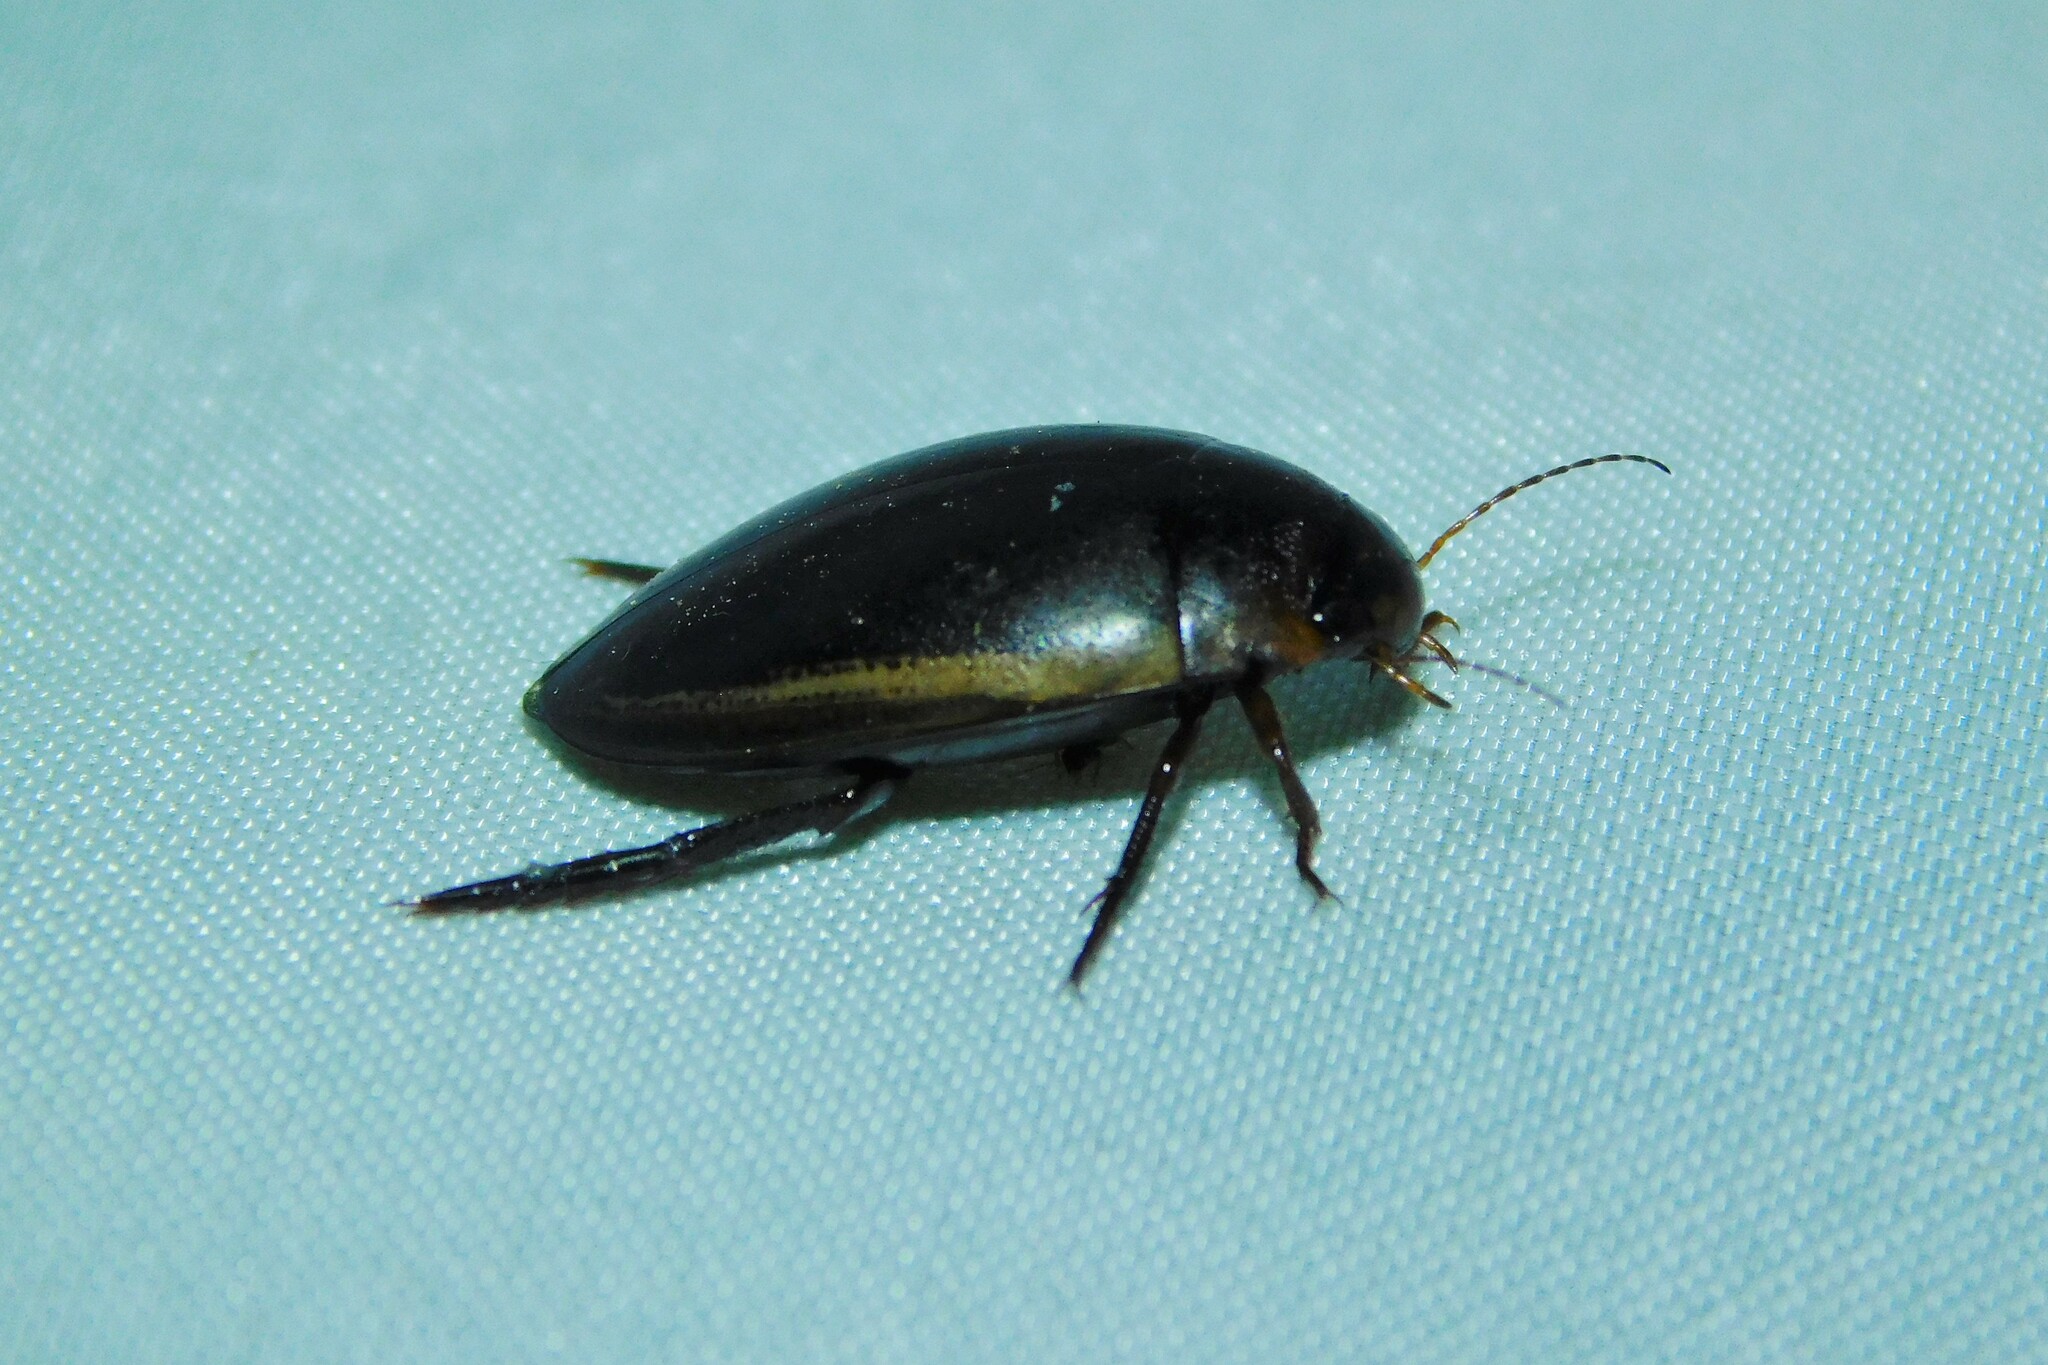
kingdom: Animalia
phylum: Arthropoda
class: Insecta
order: Coleoptera
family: Dytiscidae
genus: Hydaticus
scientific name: Hydaticus seminiger
